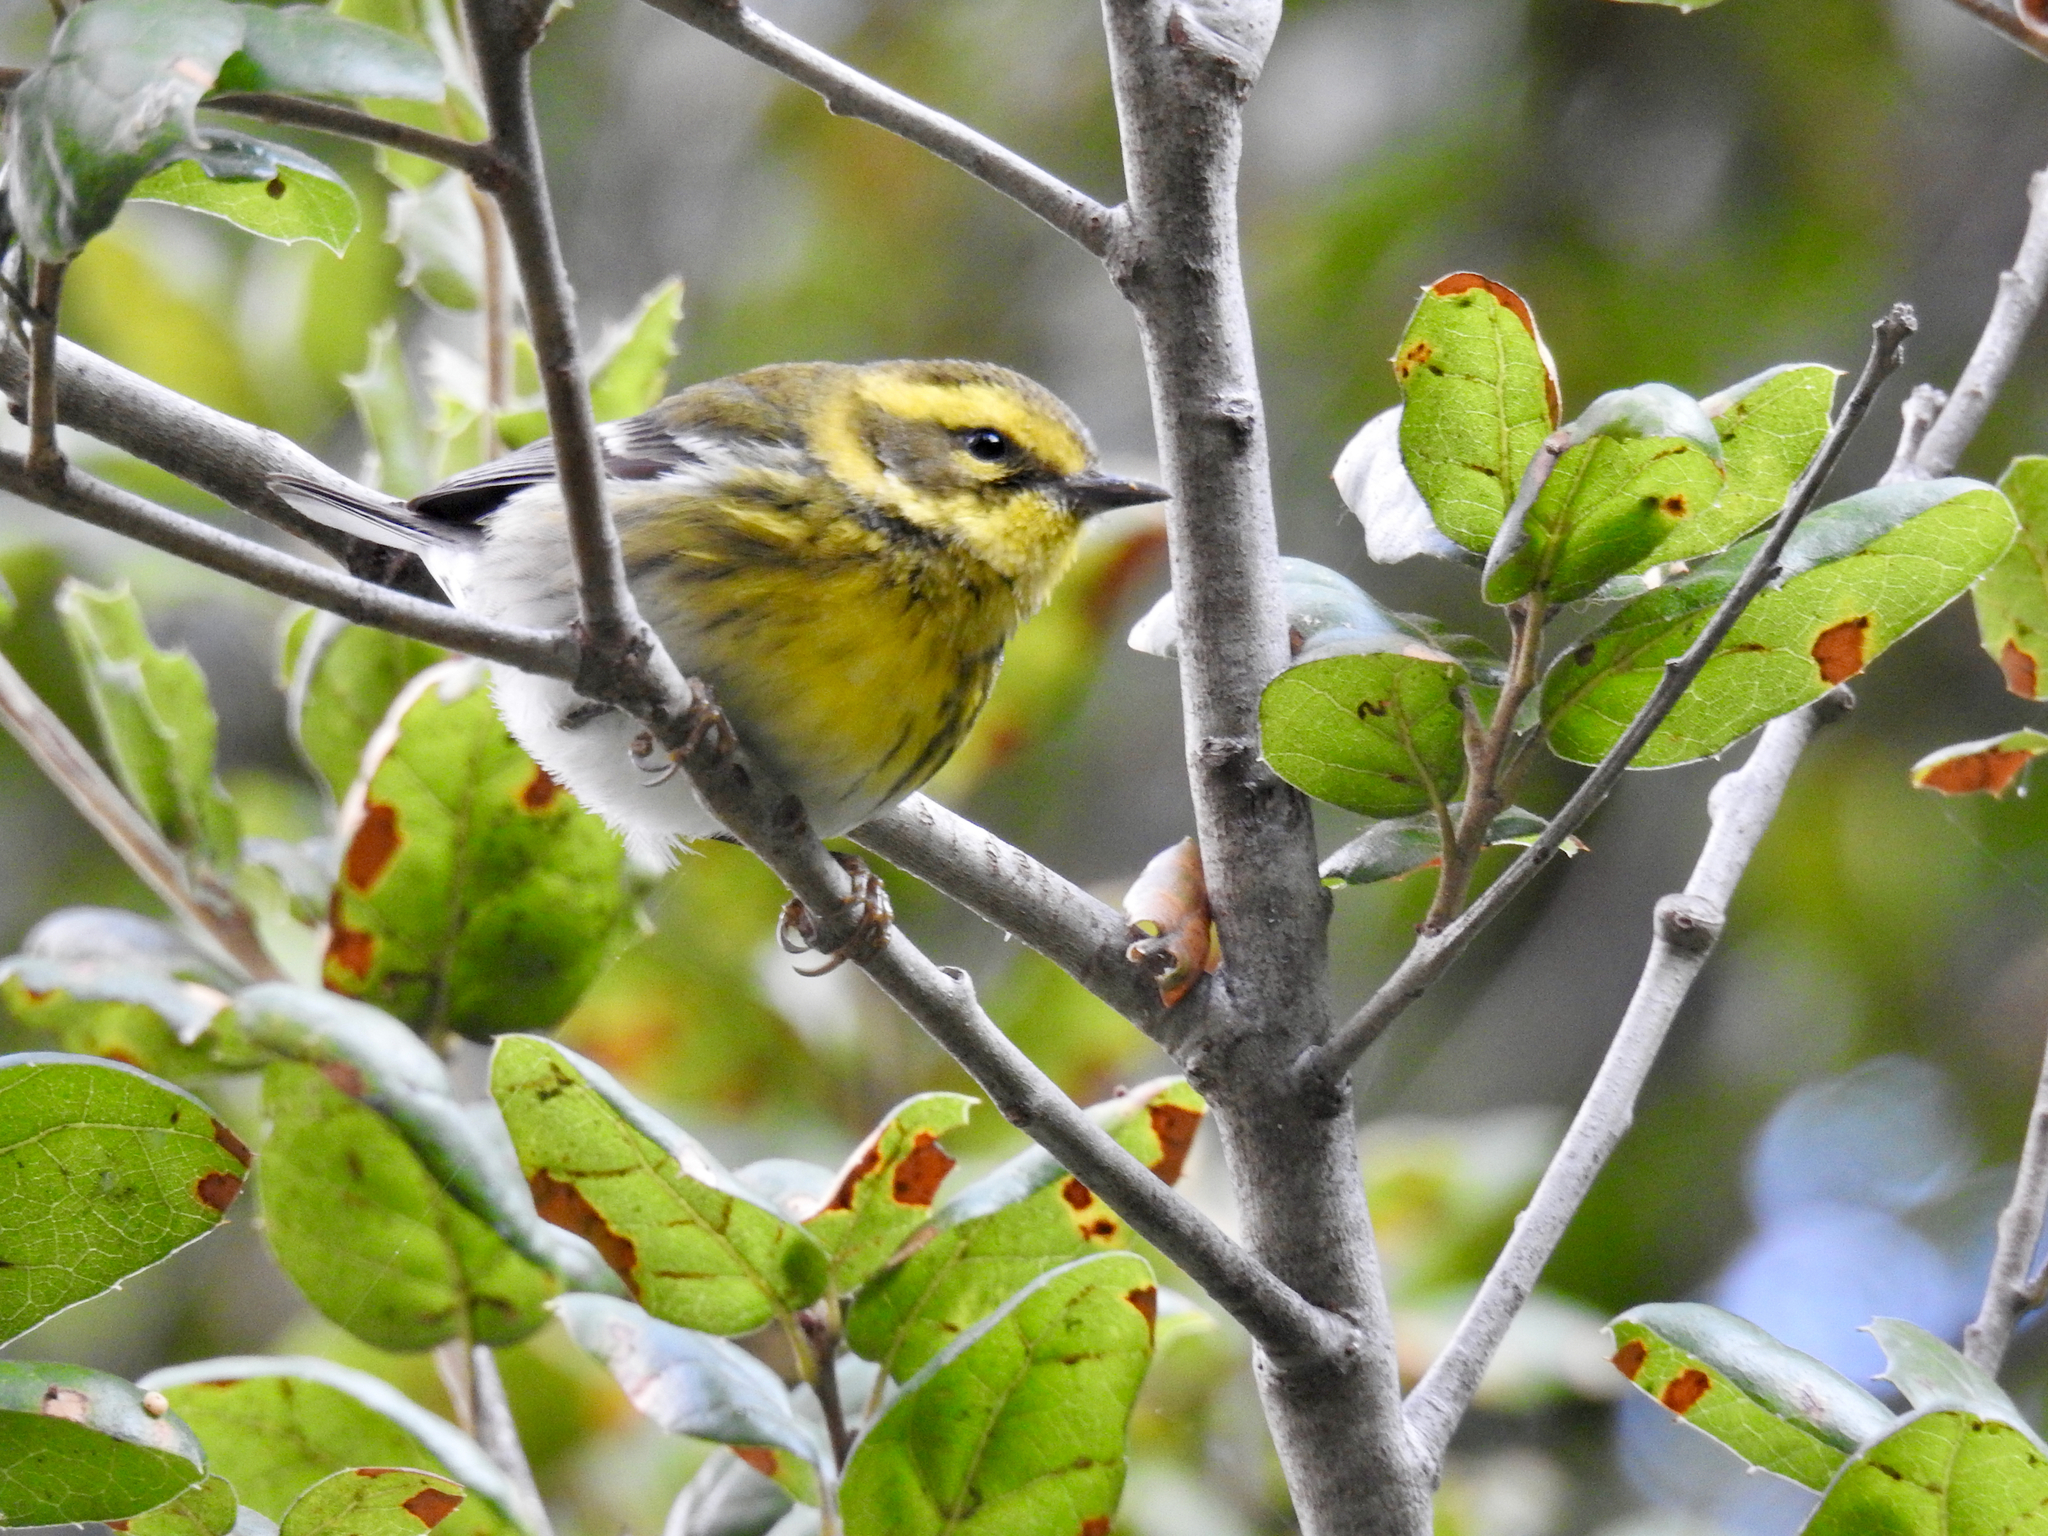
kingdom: Animalia
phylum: Chordata
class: Aves
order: Passeriformes
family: Parulidae
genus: Setophaga
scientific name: Setophaga townsendi
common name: Townsend's warbler
